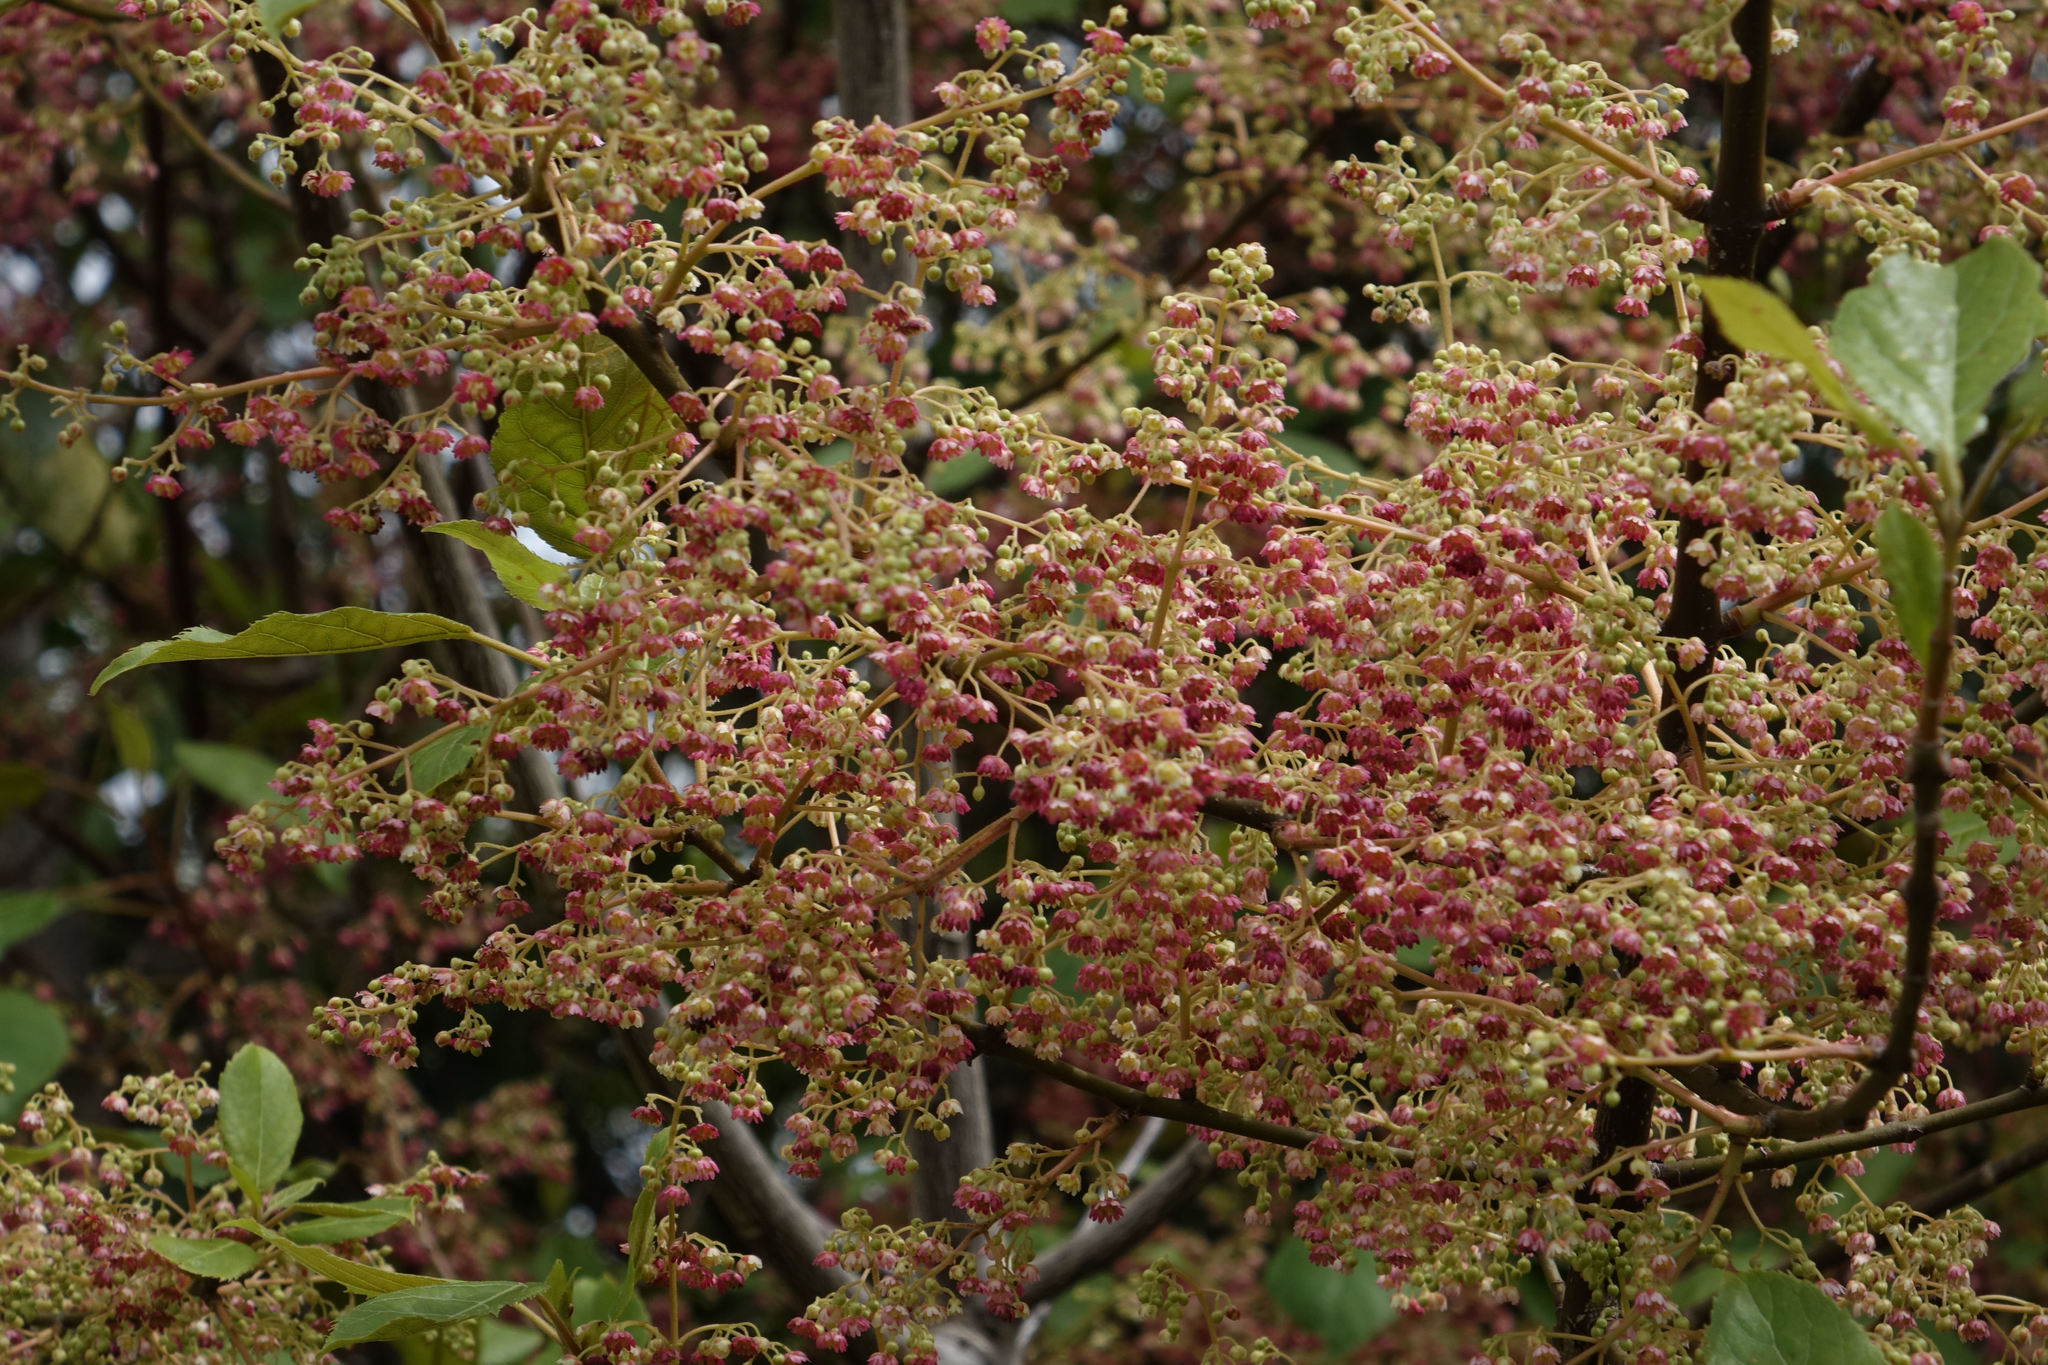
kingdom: Plantae
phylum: Tracheophyta
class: Magnoliopsida
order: Oxalidales
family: Elaeocarpaceae
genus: Aristotelia
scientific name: Aristotelia serrata
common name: New zealand wineberry
